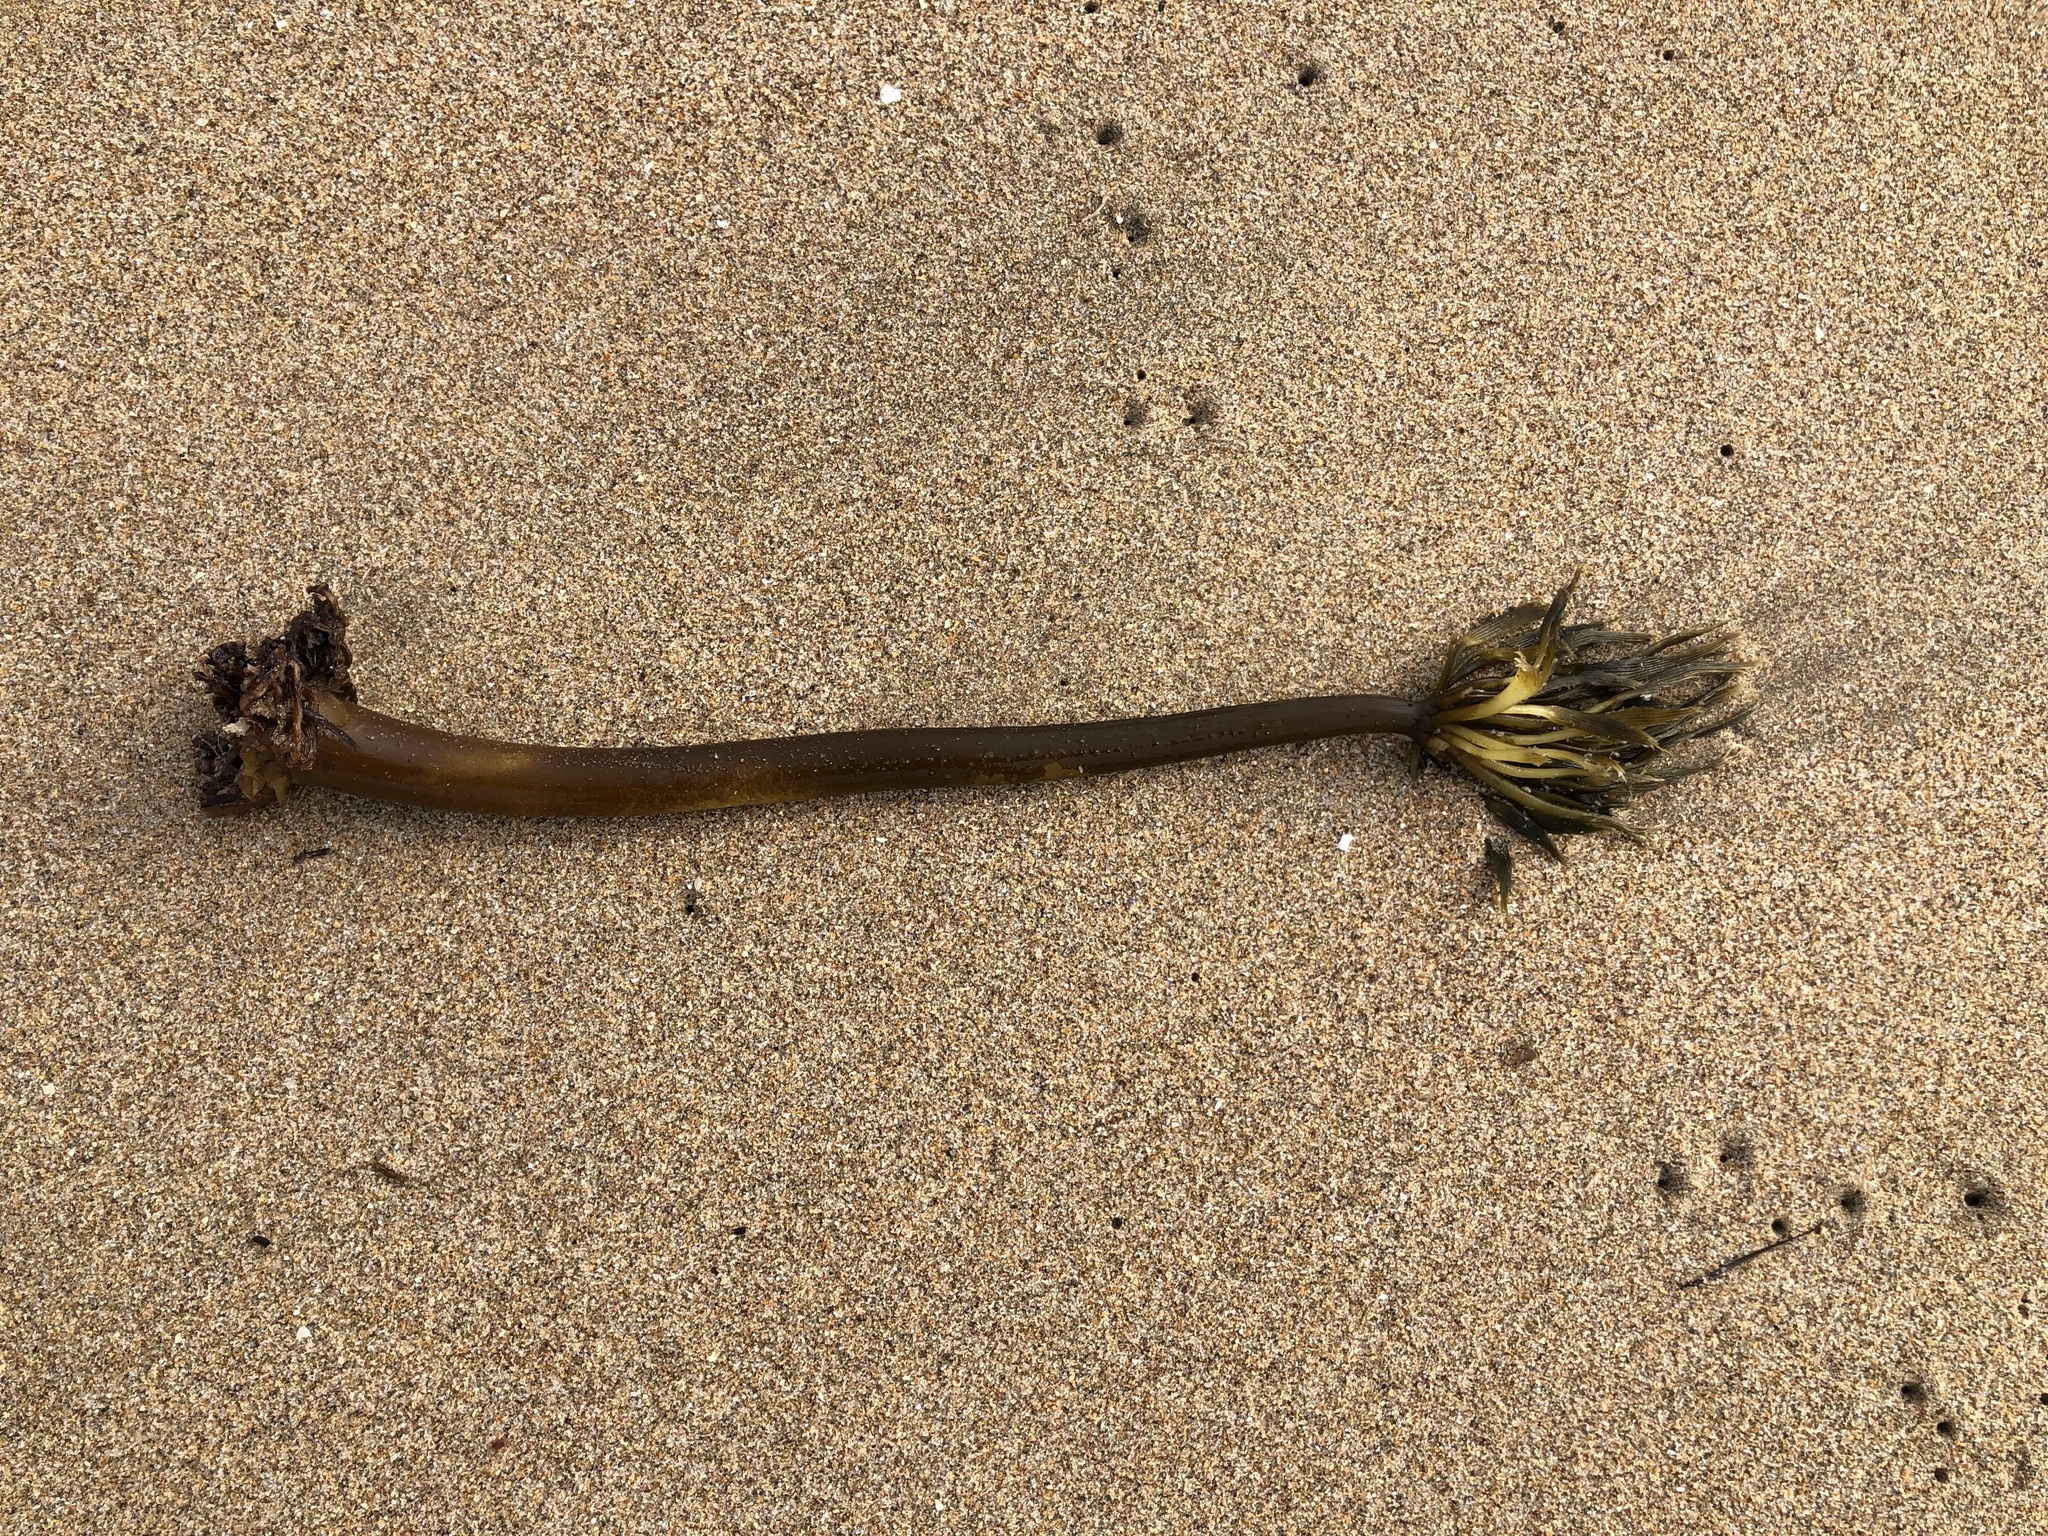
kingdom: Chromista
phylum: Ochrophyta
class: Phaeophyceae
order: Laminariales
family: Laminariaceae
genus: Postelsia
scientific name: Postelsia palmiformis
